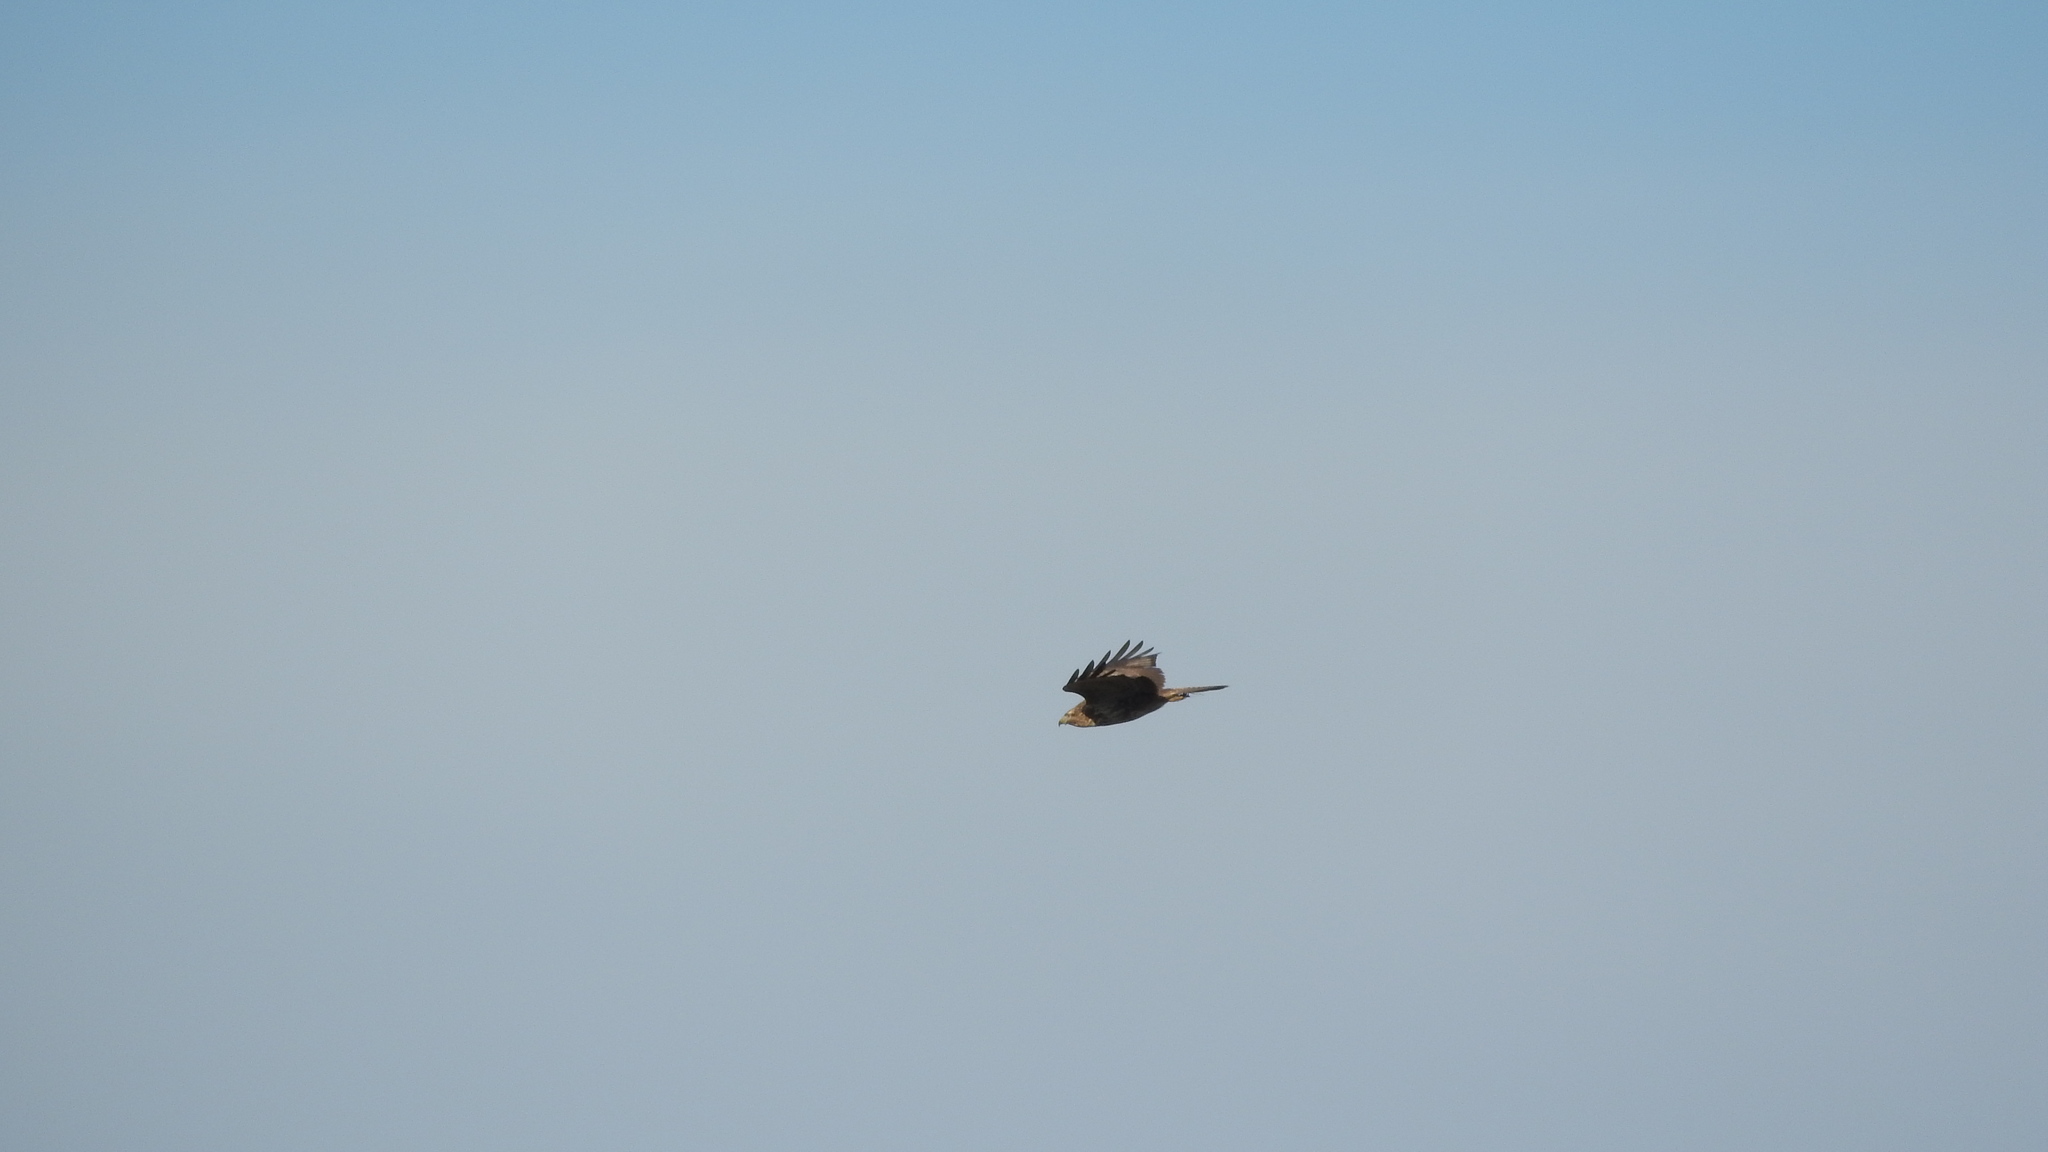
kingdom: Animalia
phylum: Chordata
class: Aves
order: Accipitriformes
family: Accipitridae
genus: Buteo
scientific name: Buteo buteo
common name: Common buzzard
